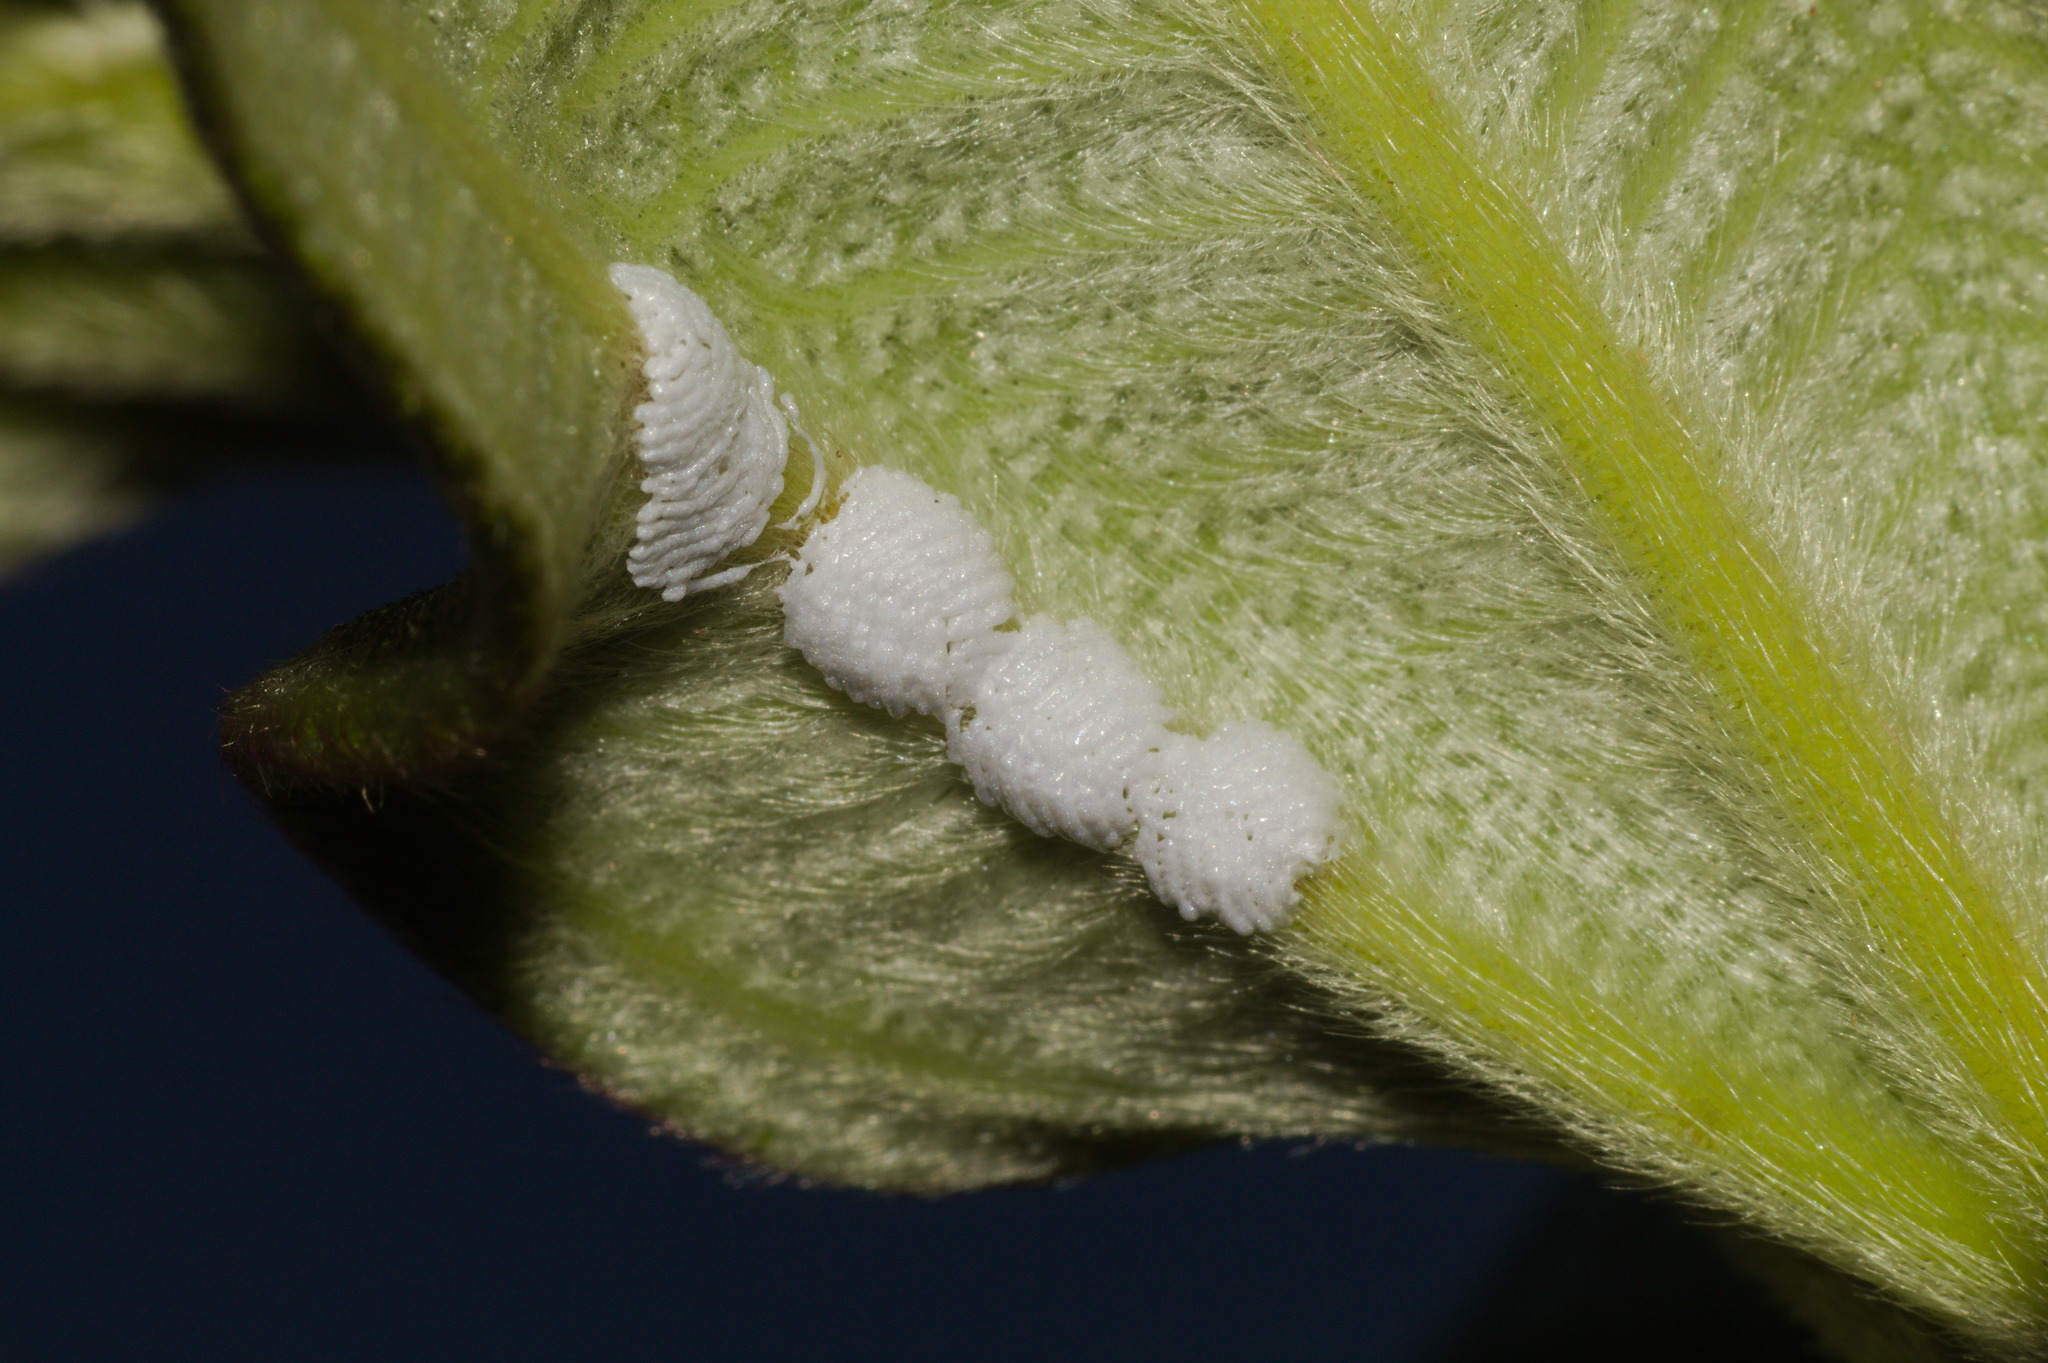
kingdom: Animalia
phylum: Arthropoda
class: Insecta
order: Hemiptera
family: Membracidae
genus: Enchenopa
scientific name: Enchenopa squamigera
